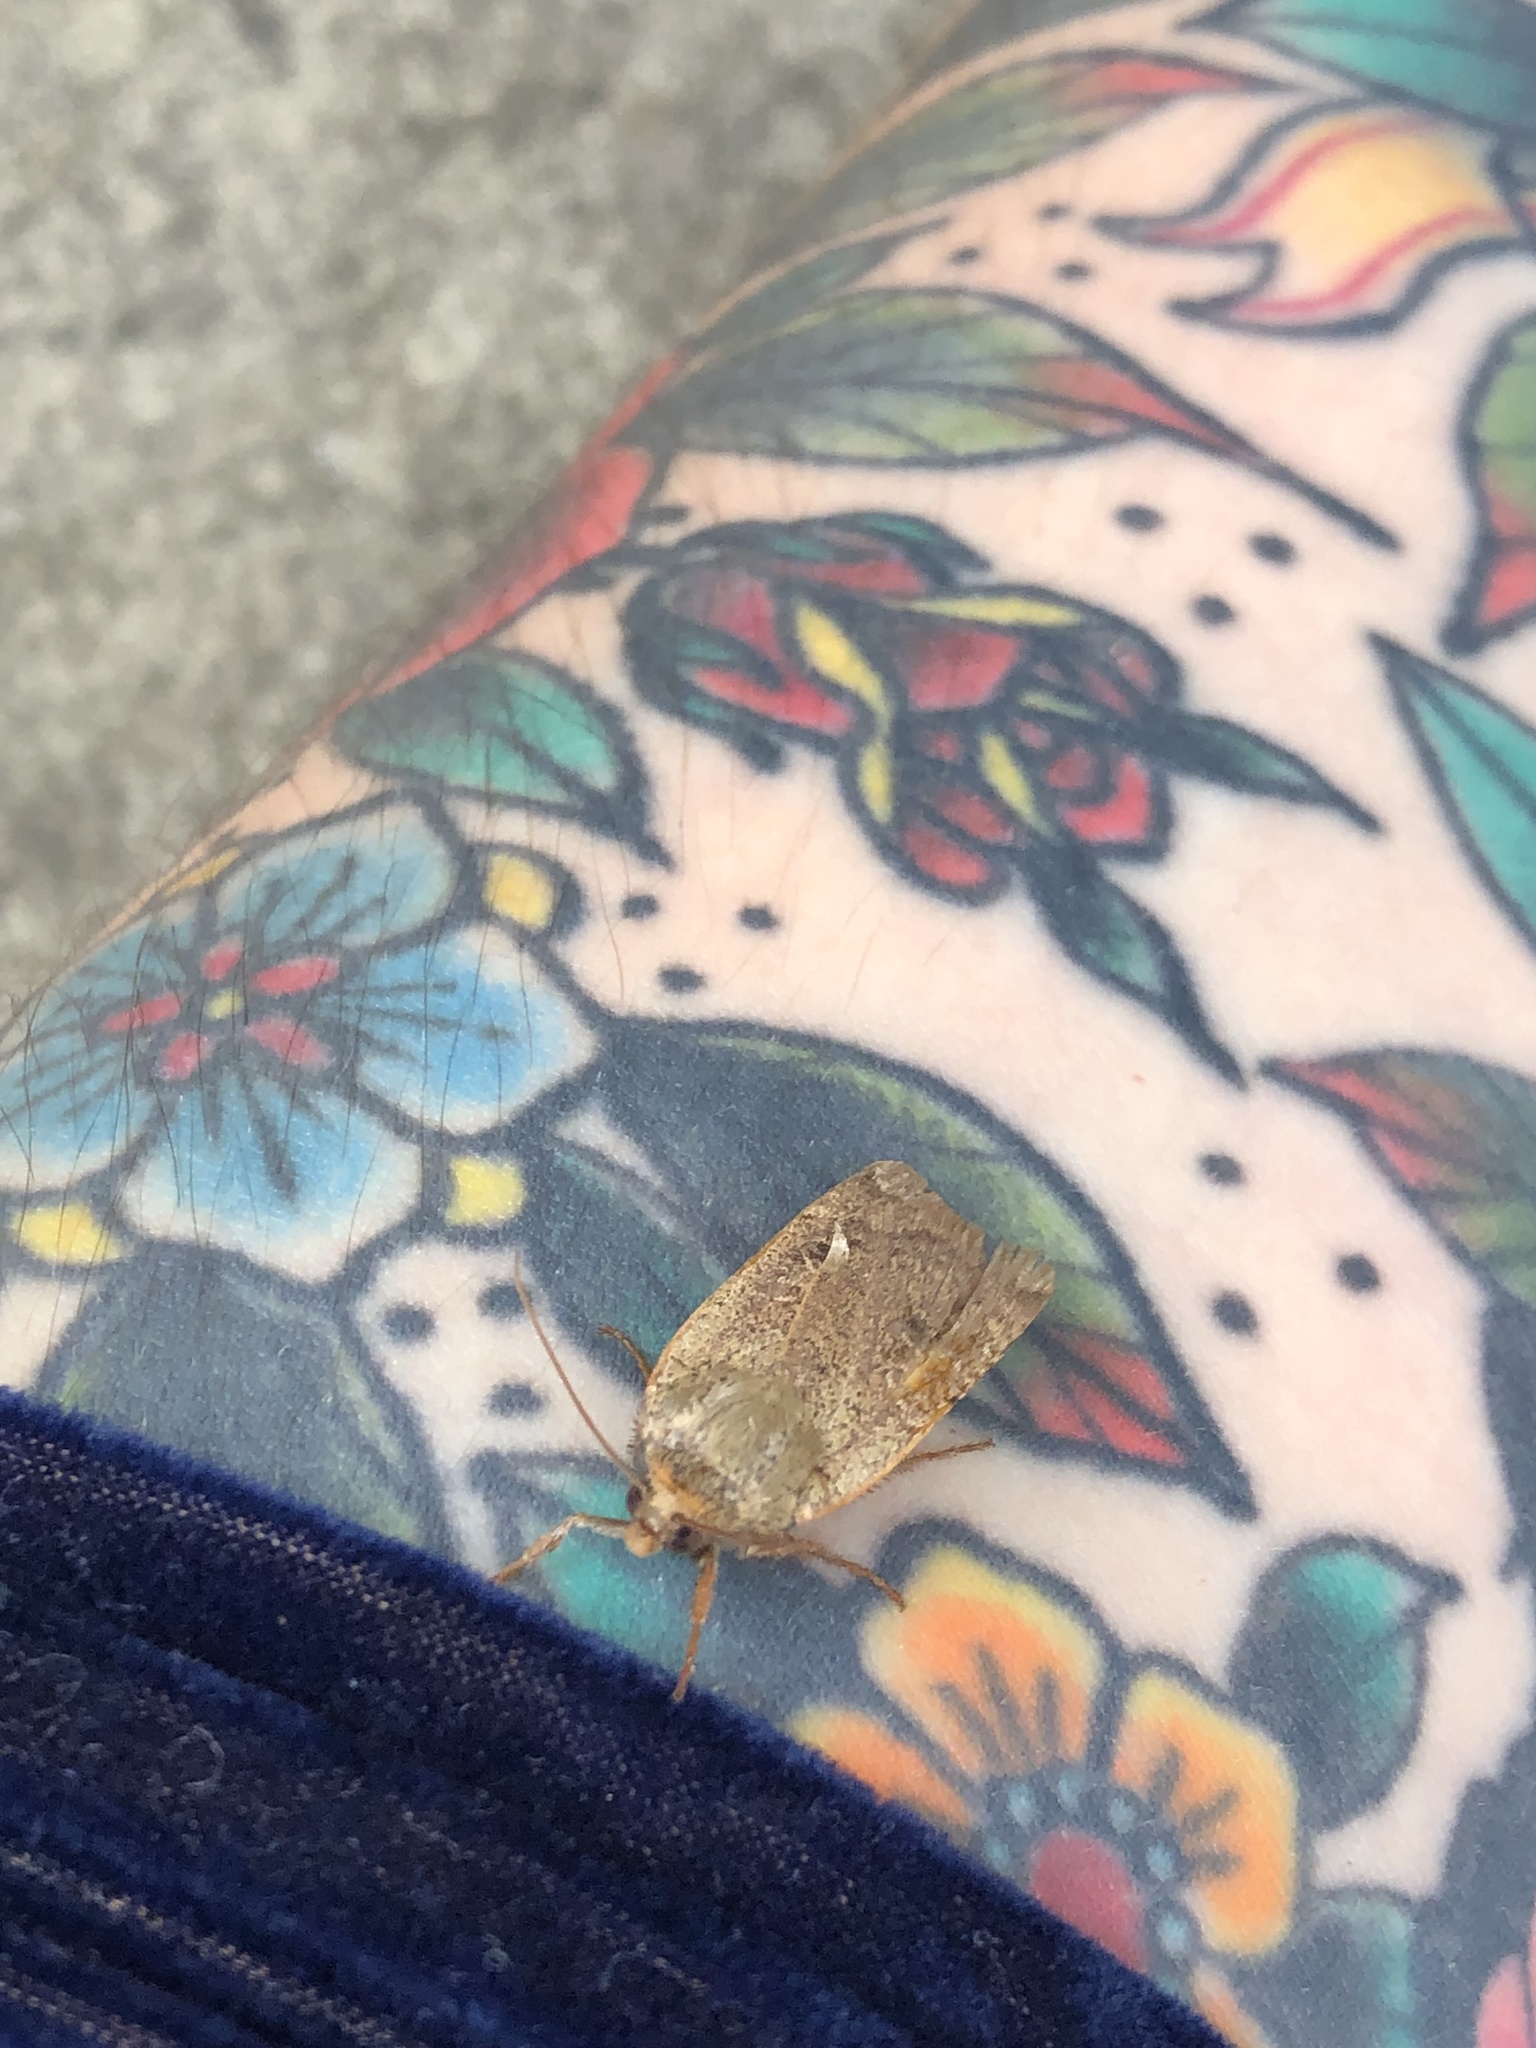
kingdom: Animalia
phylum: Arthropoda
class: Insecta
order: Lepidoptera
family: Noctuidae
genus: Noctua
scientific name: Noctua comes
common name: Lesser yellow underwing
